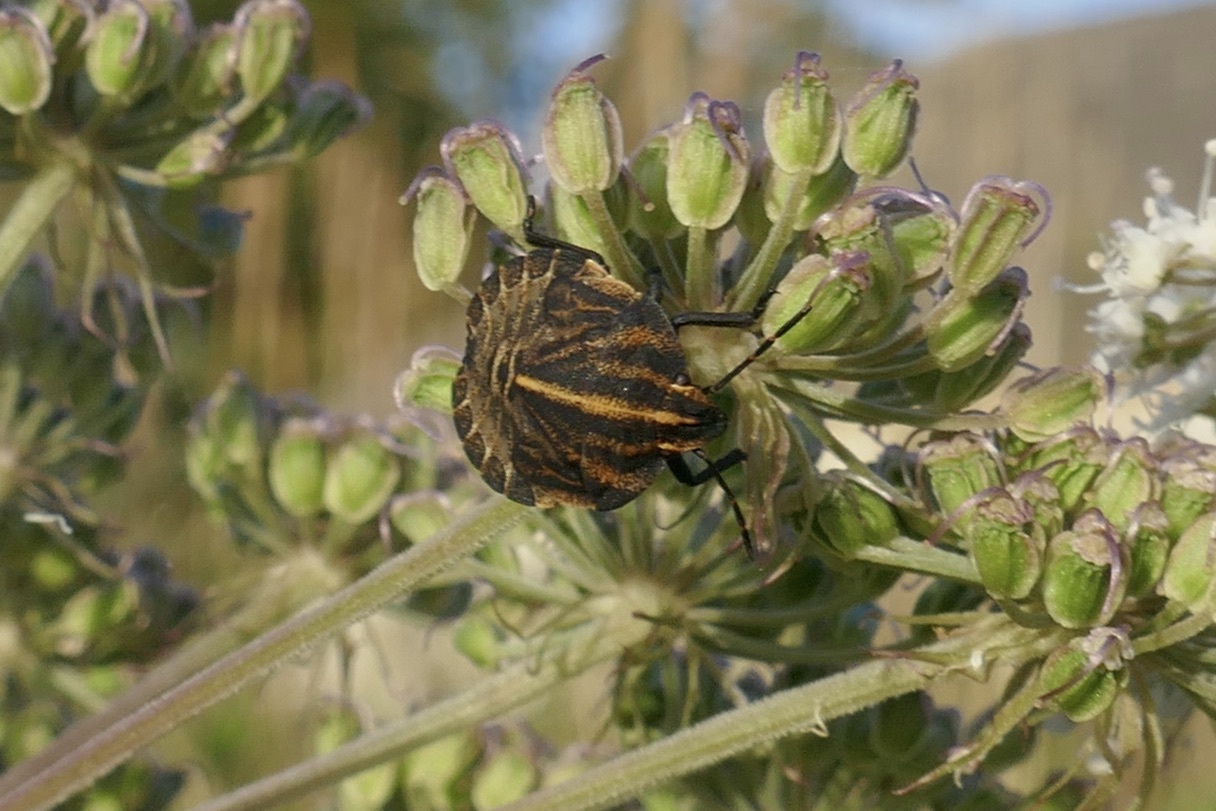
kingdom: Animalia
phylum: Arthropoda
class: Insecta
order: Hemiptera
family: Pentatomidae
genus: Graphosoma
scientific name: Graphosoma italicum
